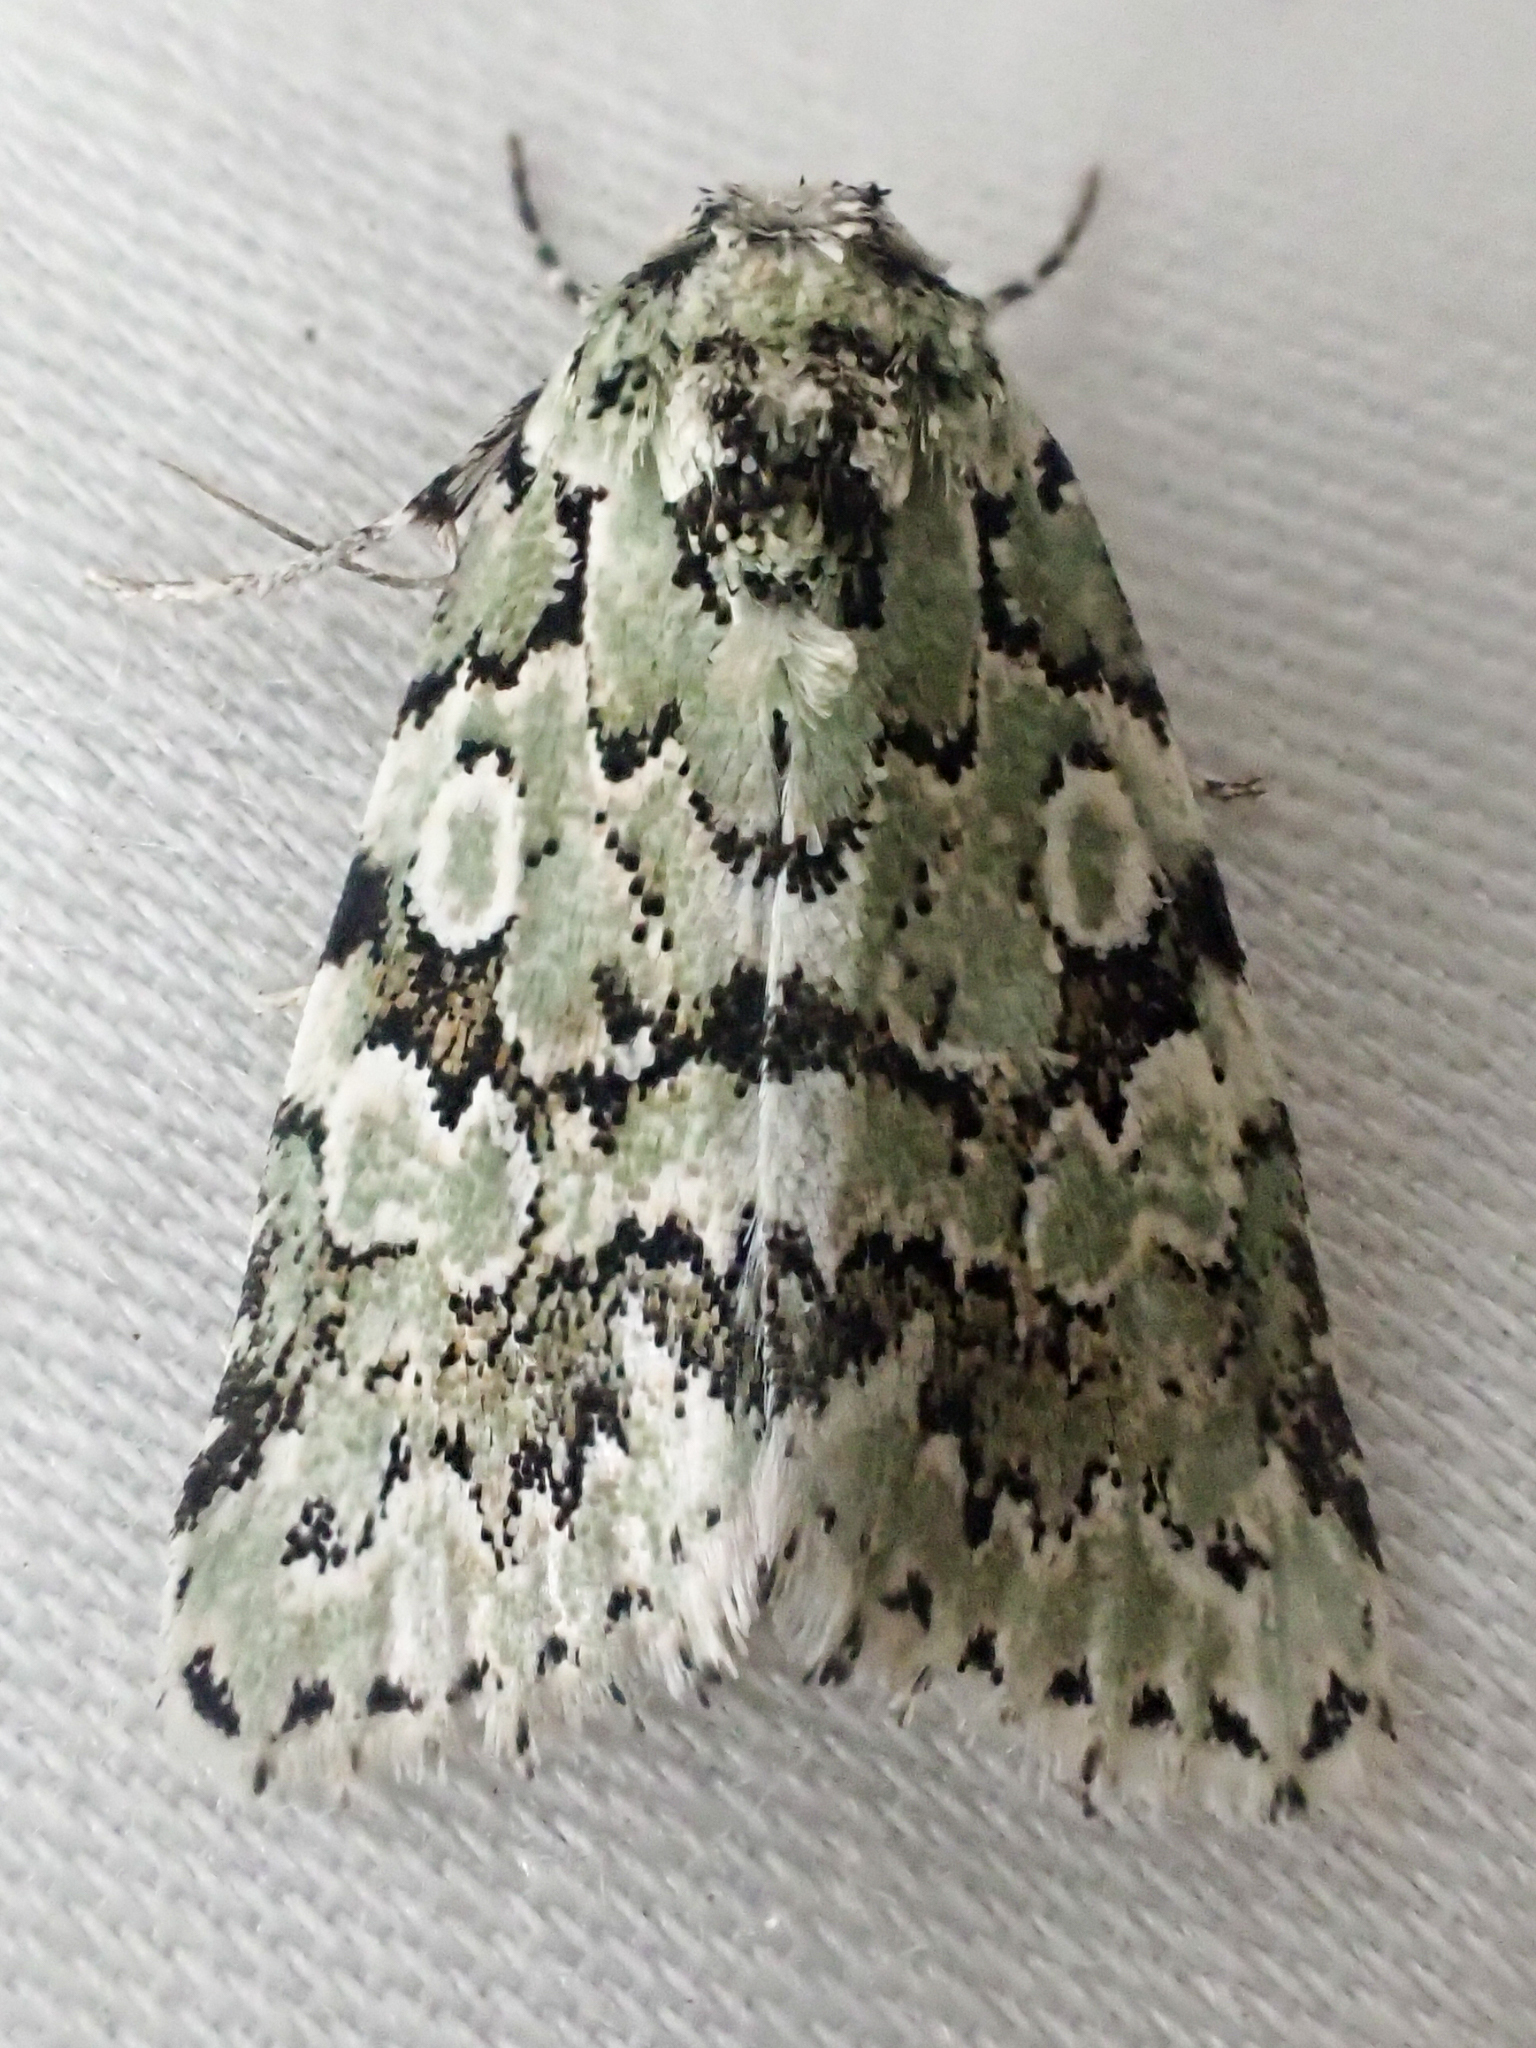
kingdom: Animalia
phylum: Arthropoda
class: Insecta
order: Lepidoptera
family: Noctuidae
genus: Bryolymnia
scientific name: Bryolymnia viridata
